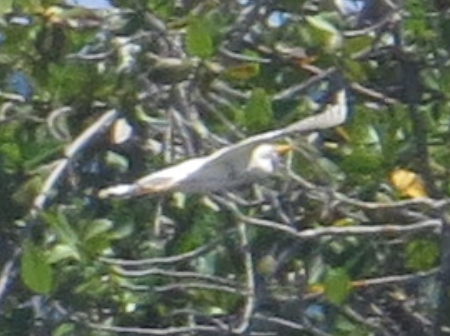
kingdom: Animalia
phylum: Chordata
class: Aves
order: Pelecaniformes
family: Ardeidae
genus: Bubulcus
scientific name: Bubulcus ibis
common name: Cattle egret
